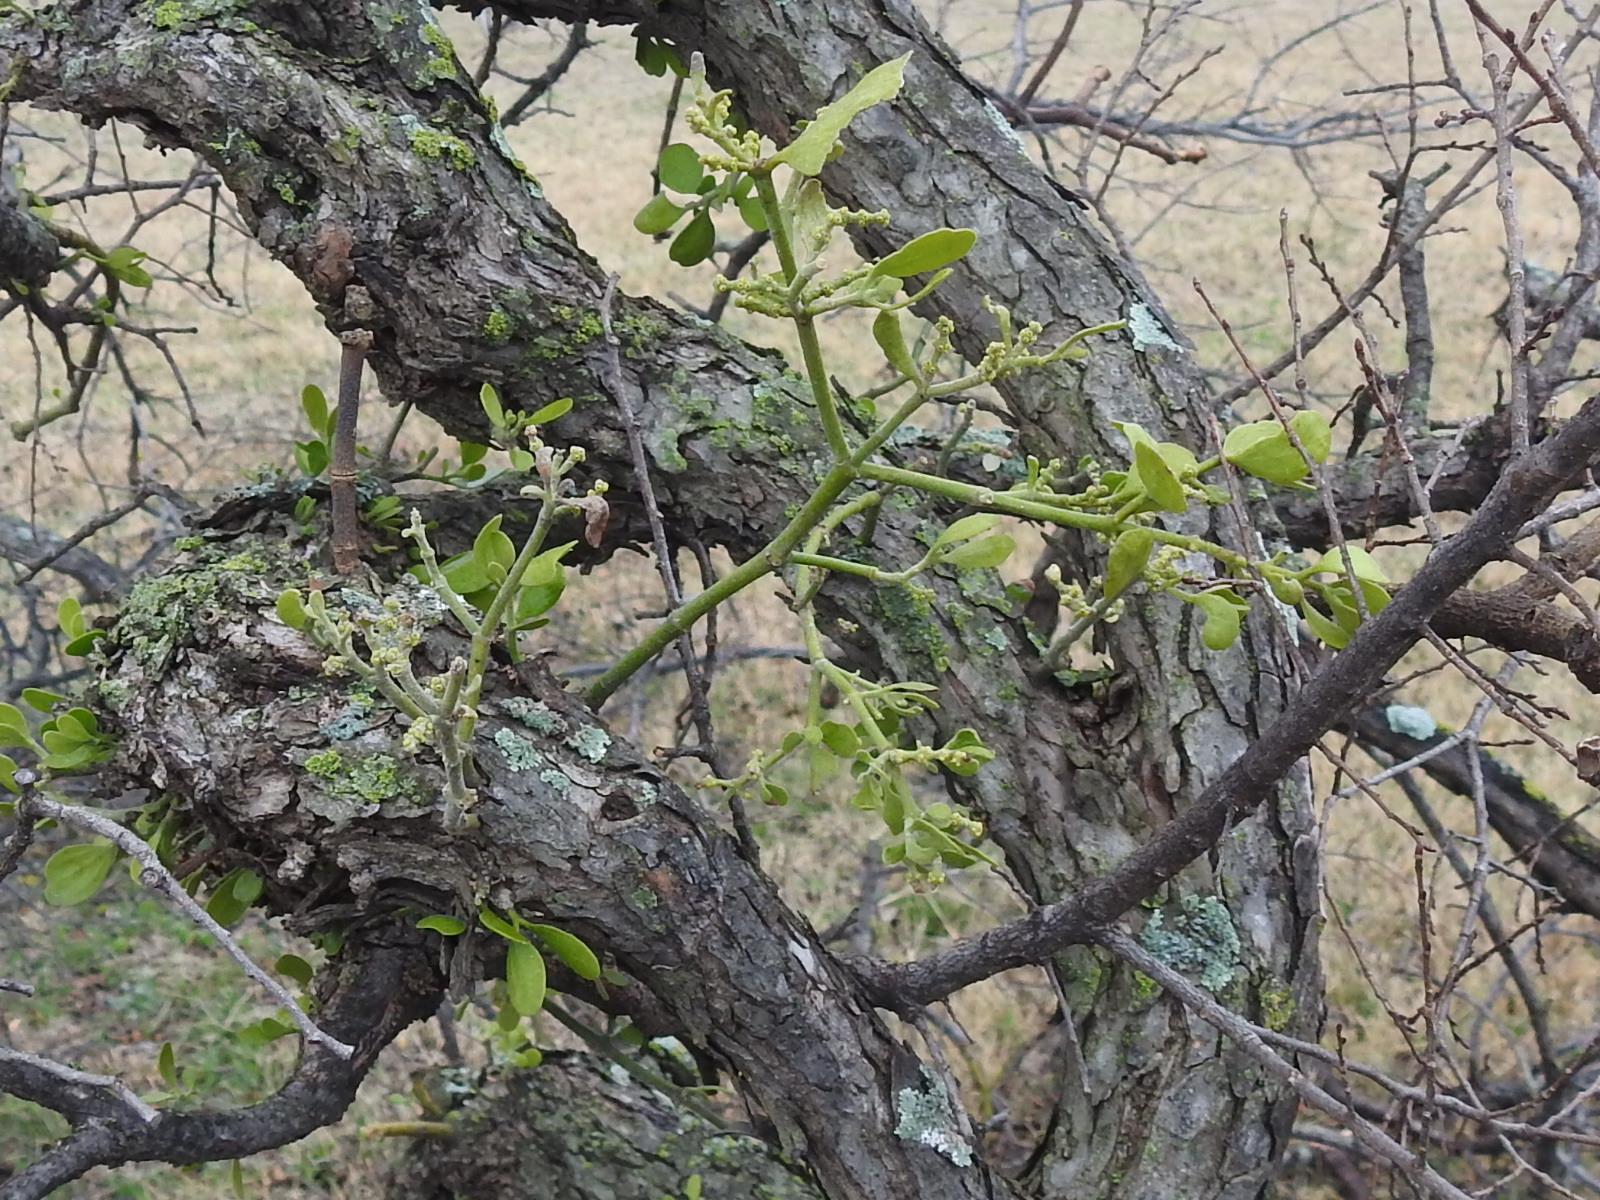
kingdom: Plantae
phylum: Tracheophyta
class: Magnoliopsida
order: Santalales
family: Viscaceae
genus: Phoradendron
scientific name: Phoradendron leucarpum
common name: Pacific mistletoe
